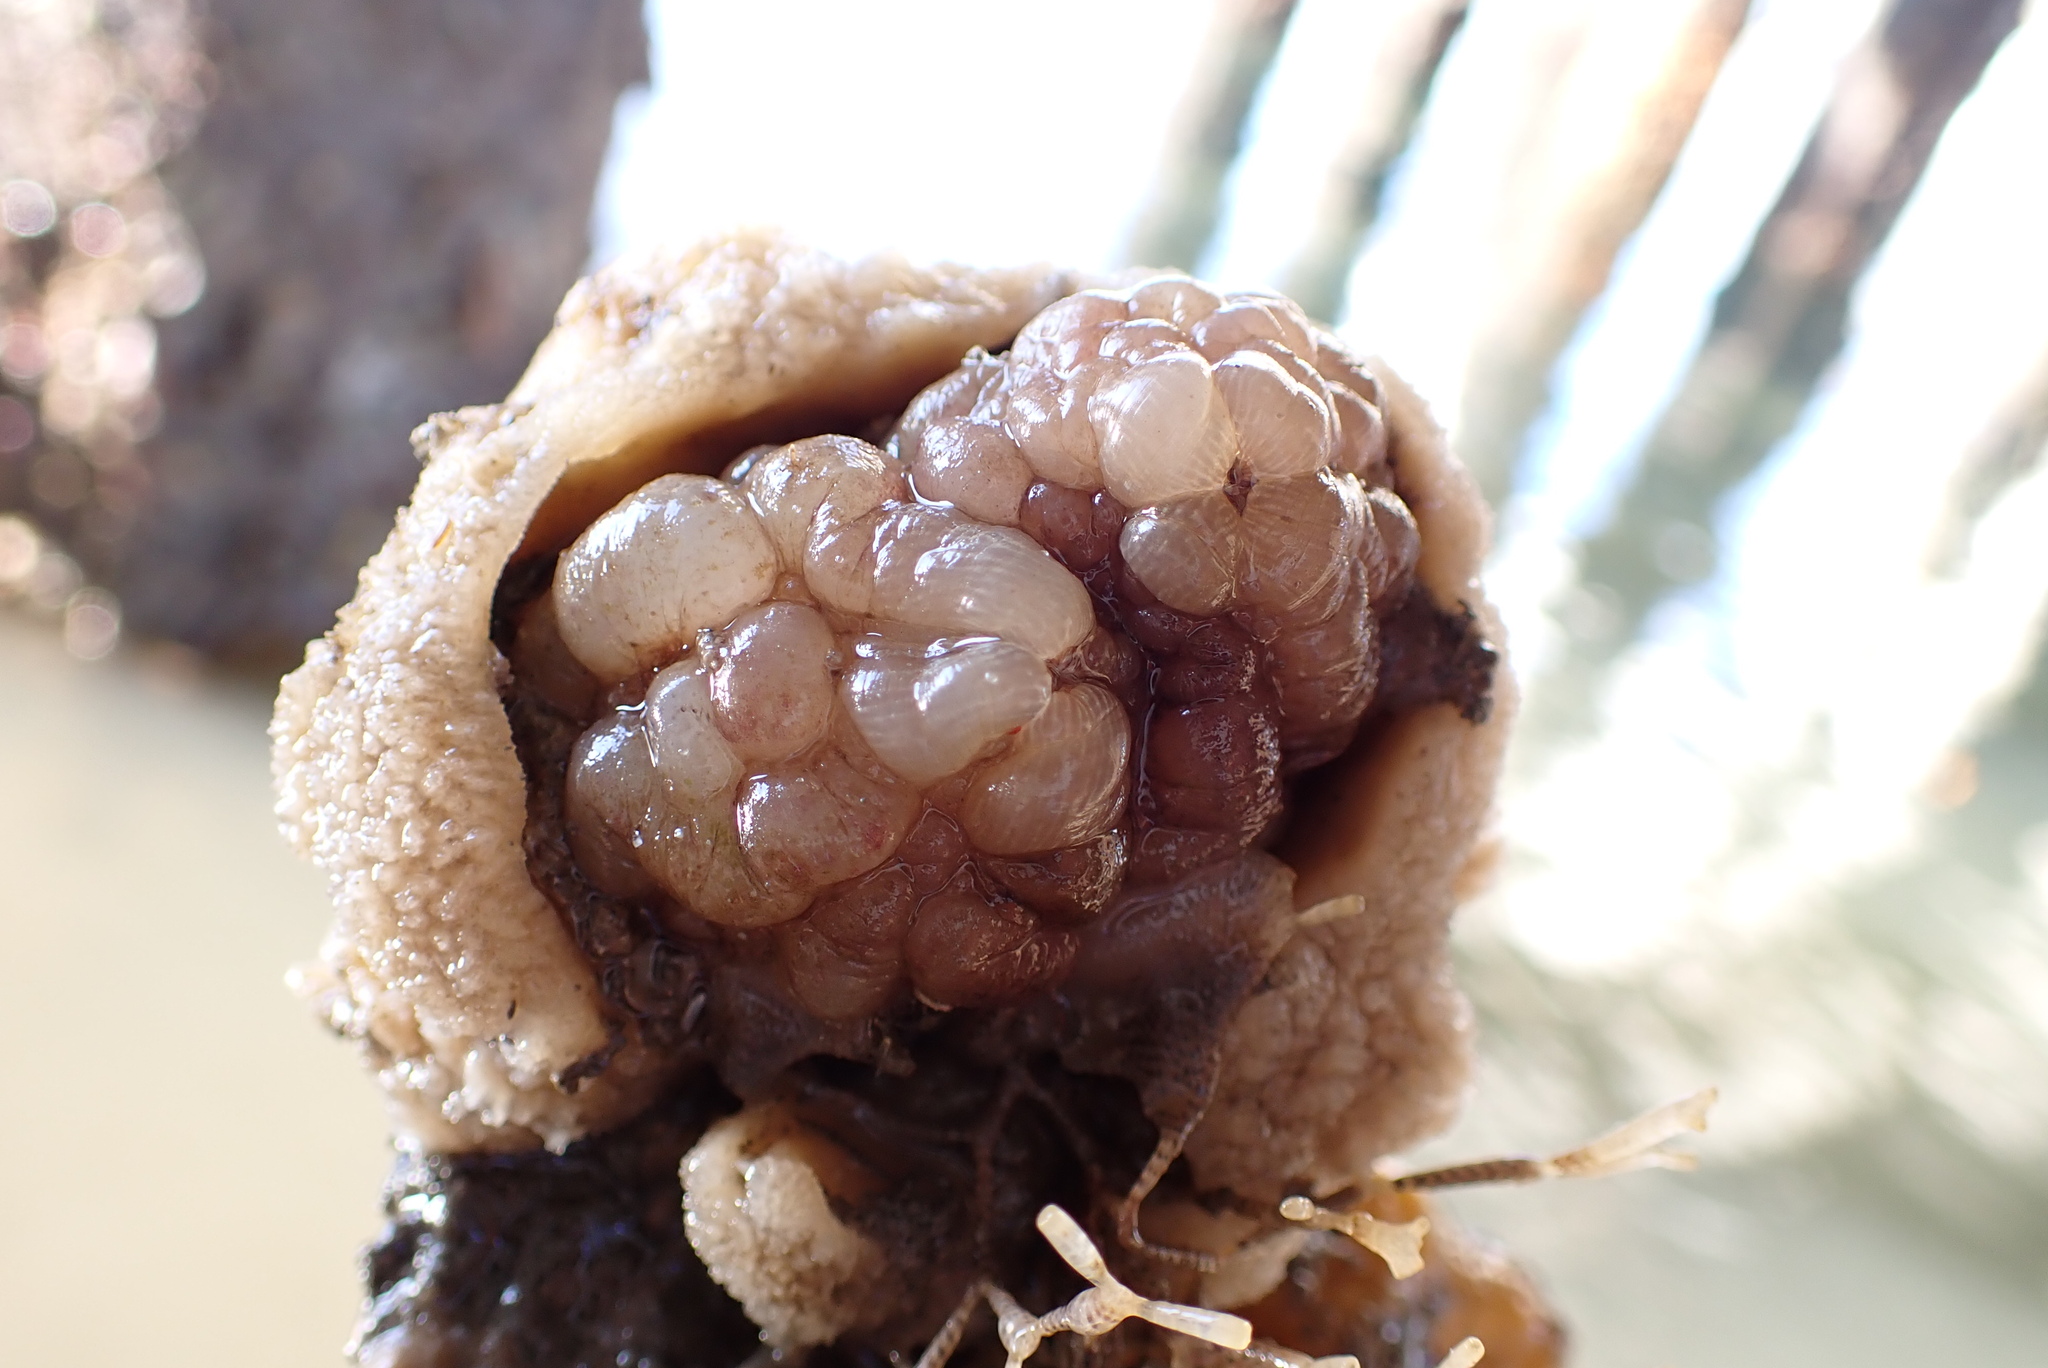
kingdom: Animalia
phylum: Chordata
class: Ascidiacea
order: Stolidobranchia
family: Styelidae
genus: Styela
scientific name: Styela plicata
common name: Pleated tunicate
